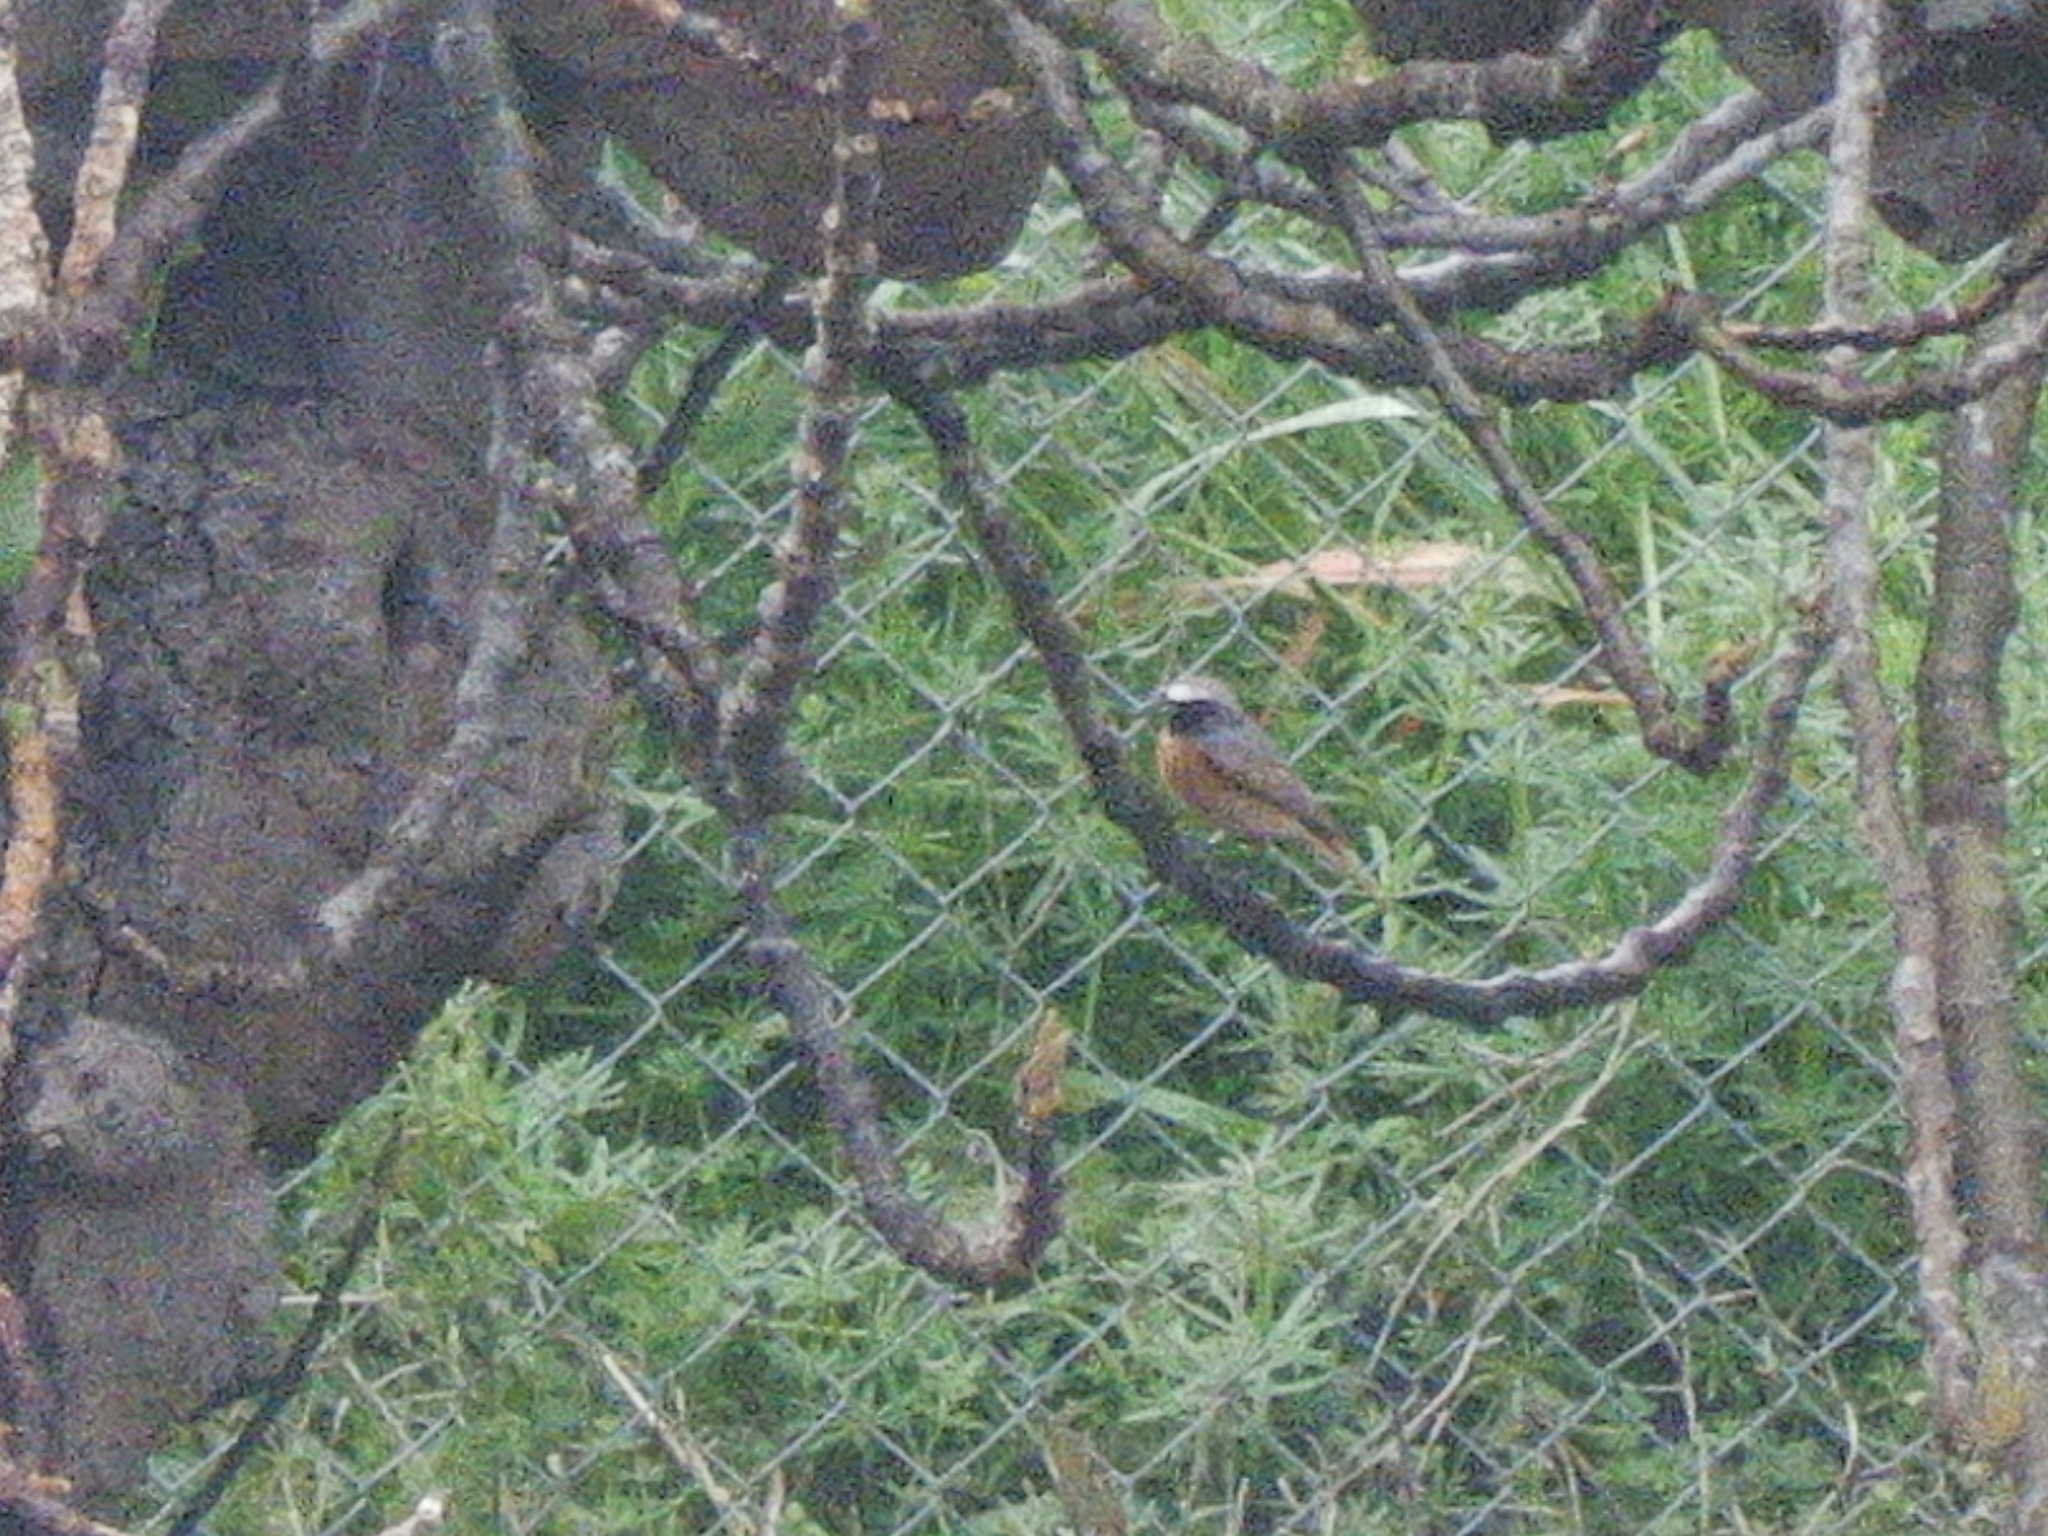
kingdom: Animalia
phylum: Chordata
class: Aves
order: Passeriformes
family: Muscicapidae
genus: Phoenicurus
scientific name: Phoenicurus phoenicurus
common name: Common redstart
